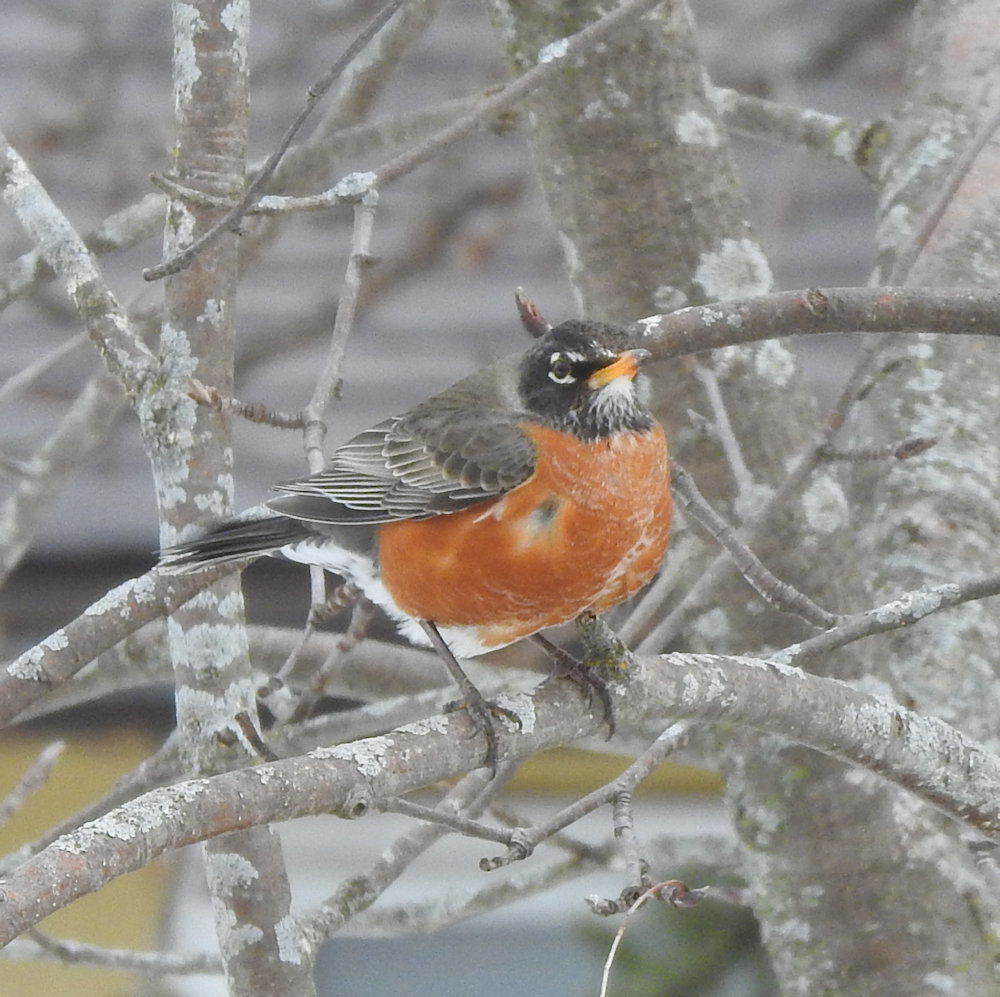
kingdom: Animalia
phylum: Chordata
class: Aves
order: Passeriformes
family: Turdidae
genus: Turdus
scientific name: Turdus migratorius
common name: American robin
